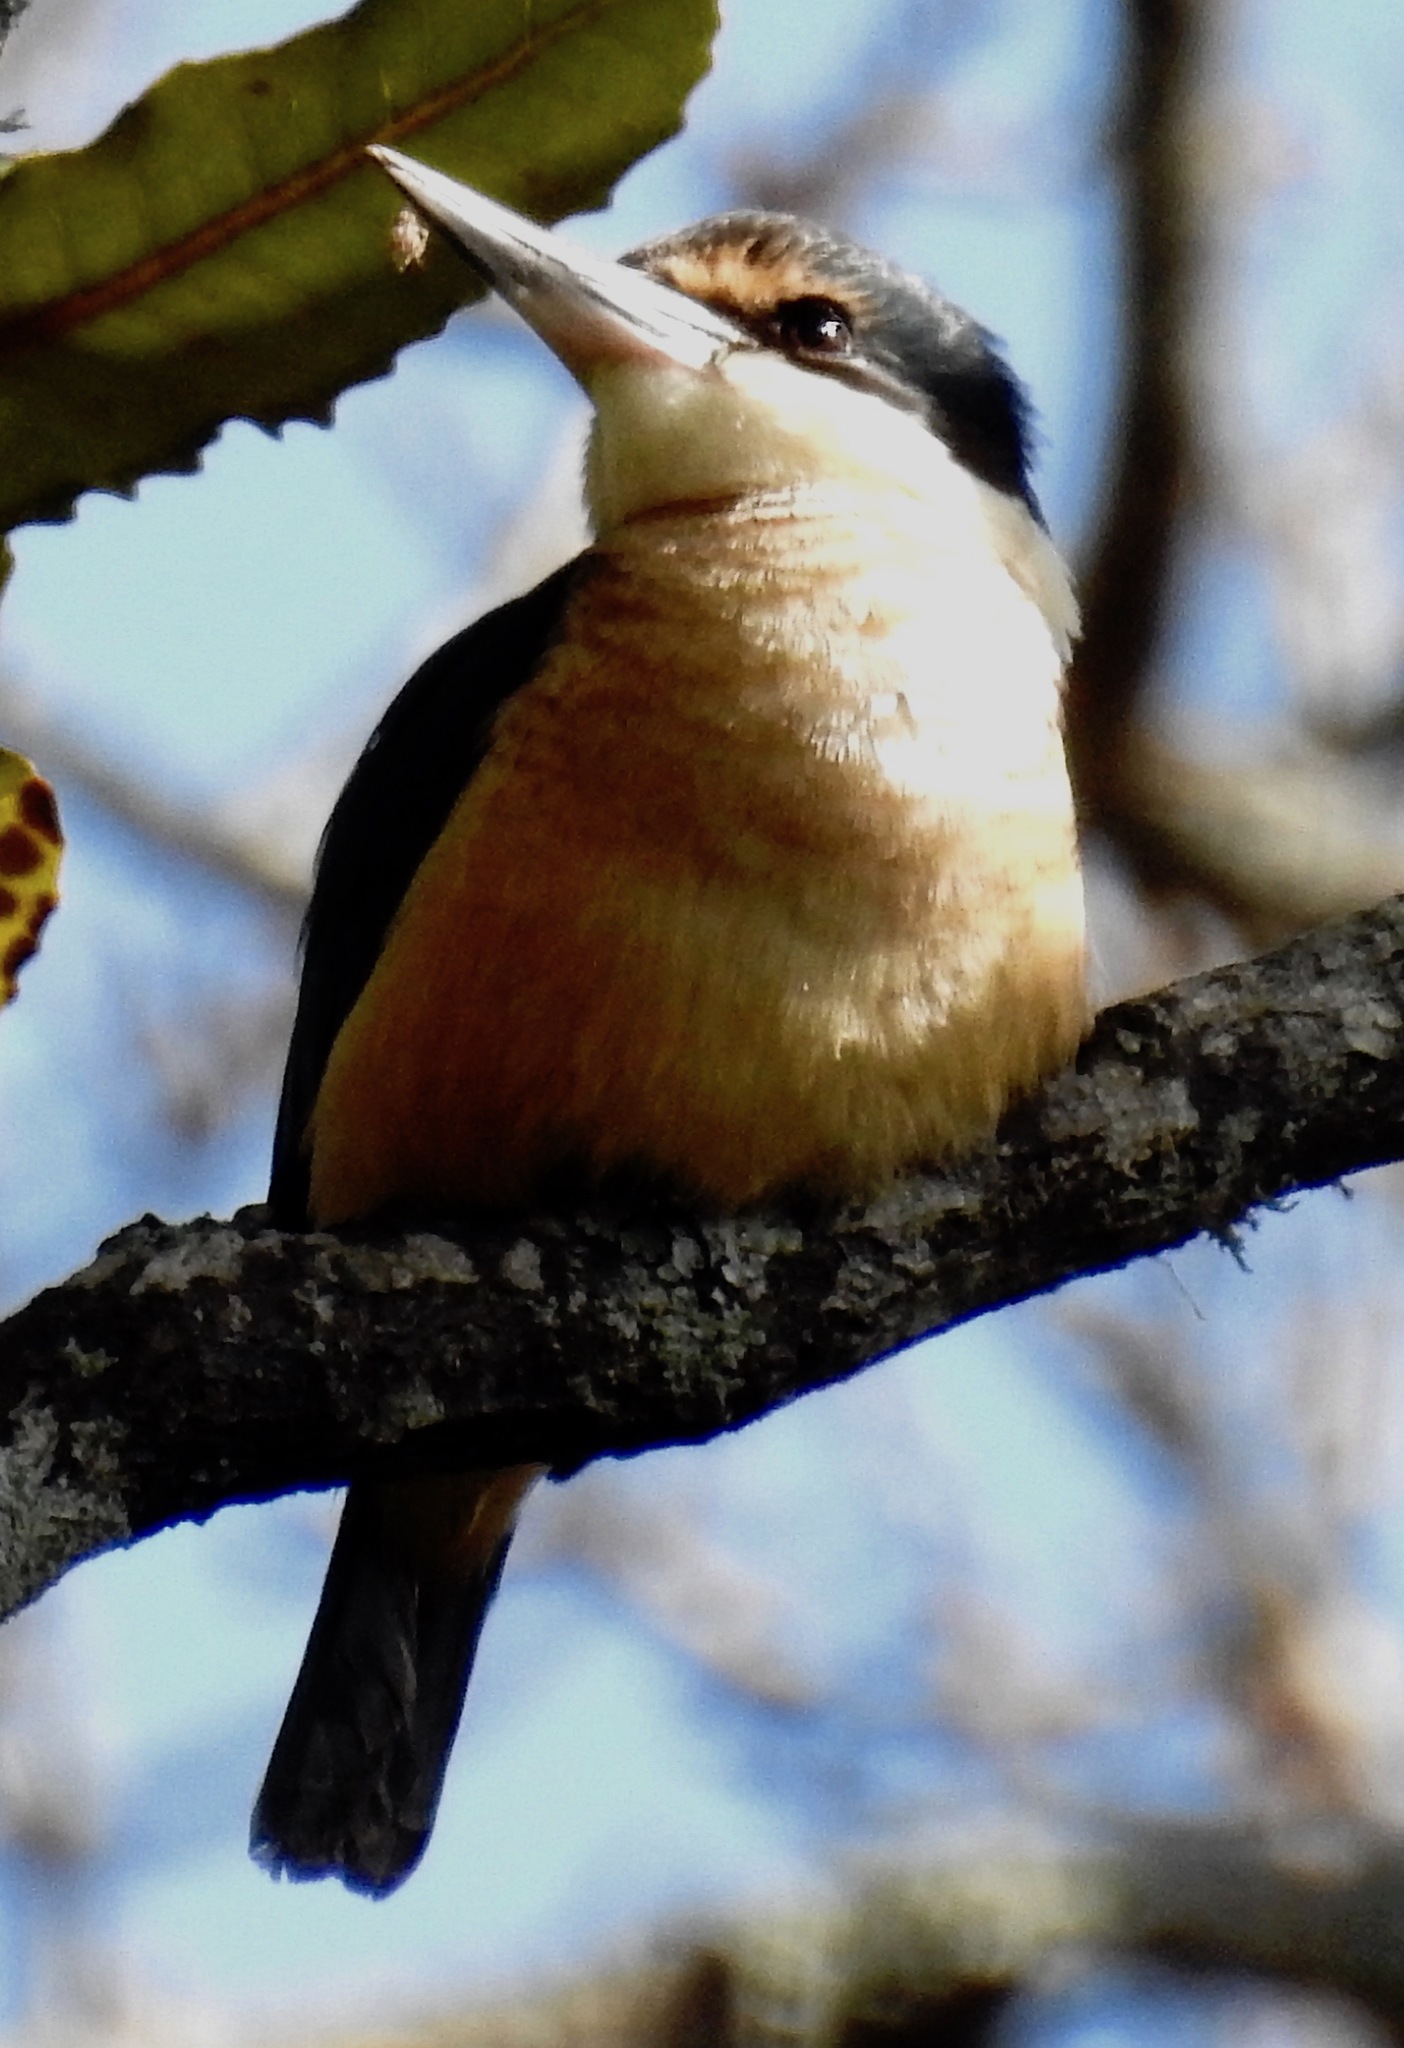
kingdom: Animalia
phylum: Chordata
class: Aves
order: Coraciiformes
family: Alcedinidae
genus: Todiramphus
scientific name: Todiramphus sanctus
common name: Sacred kingfisher
